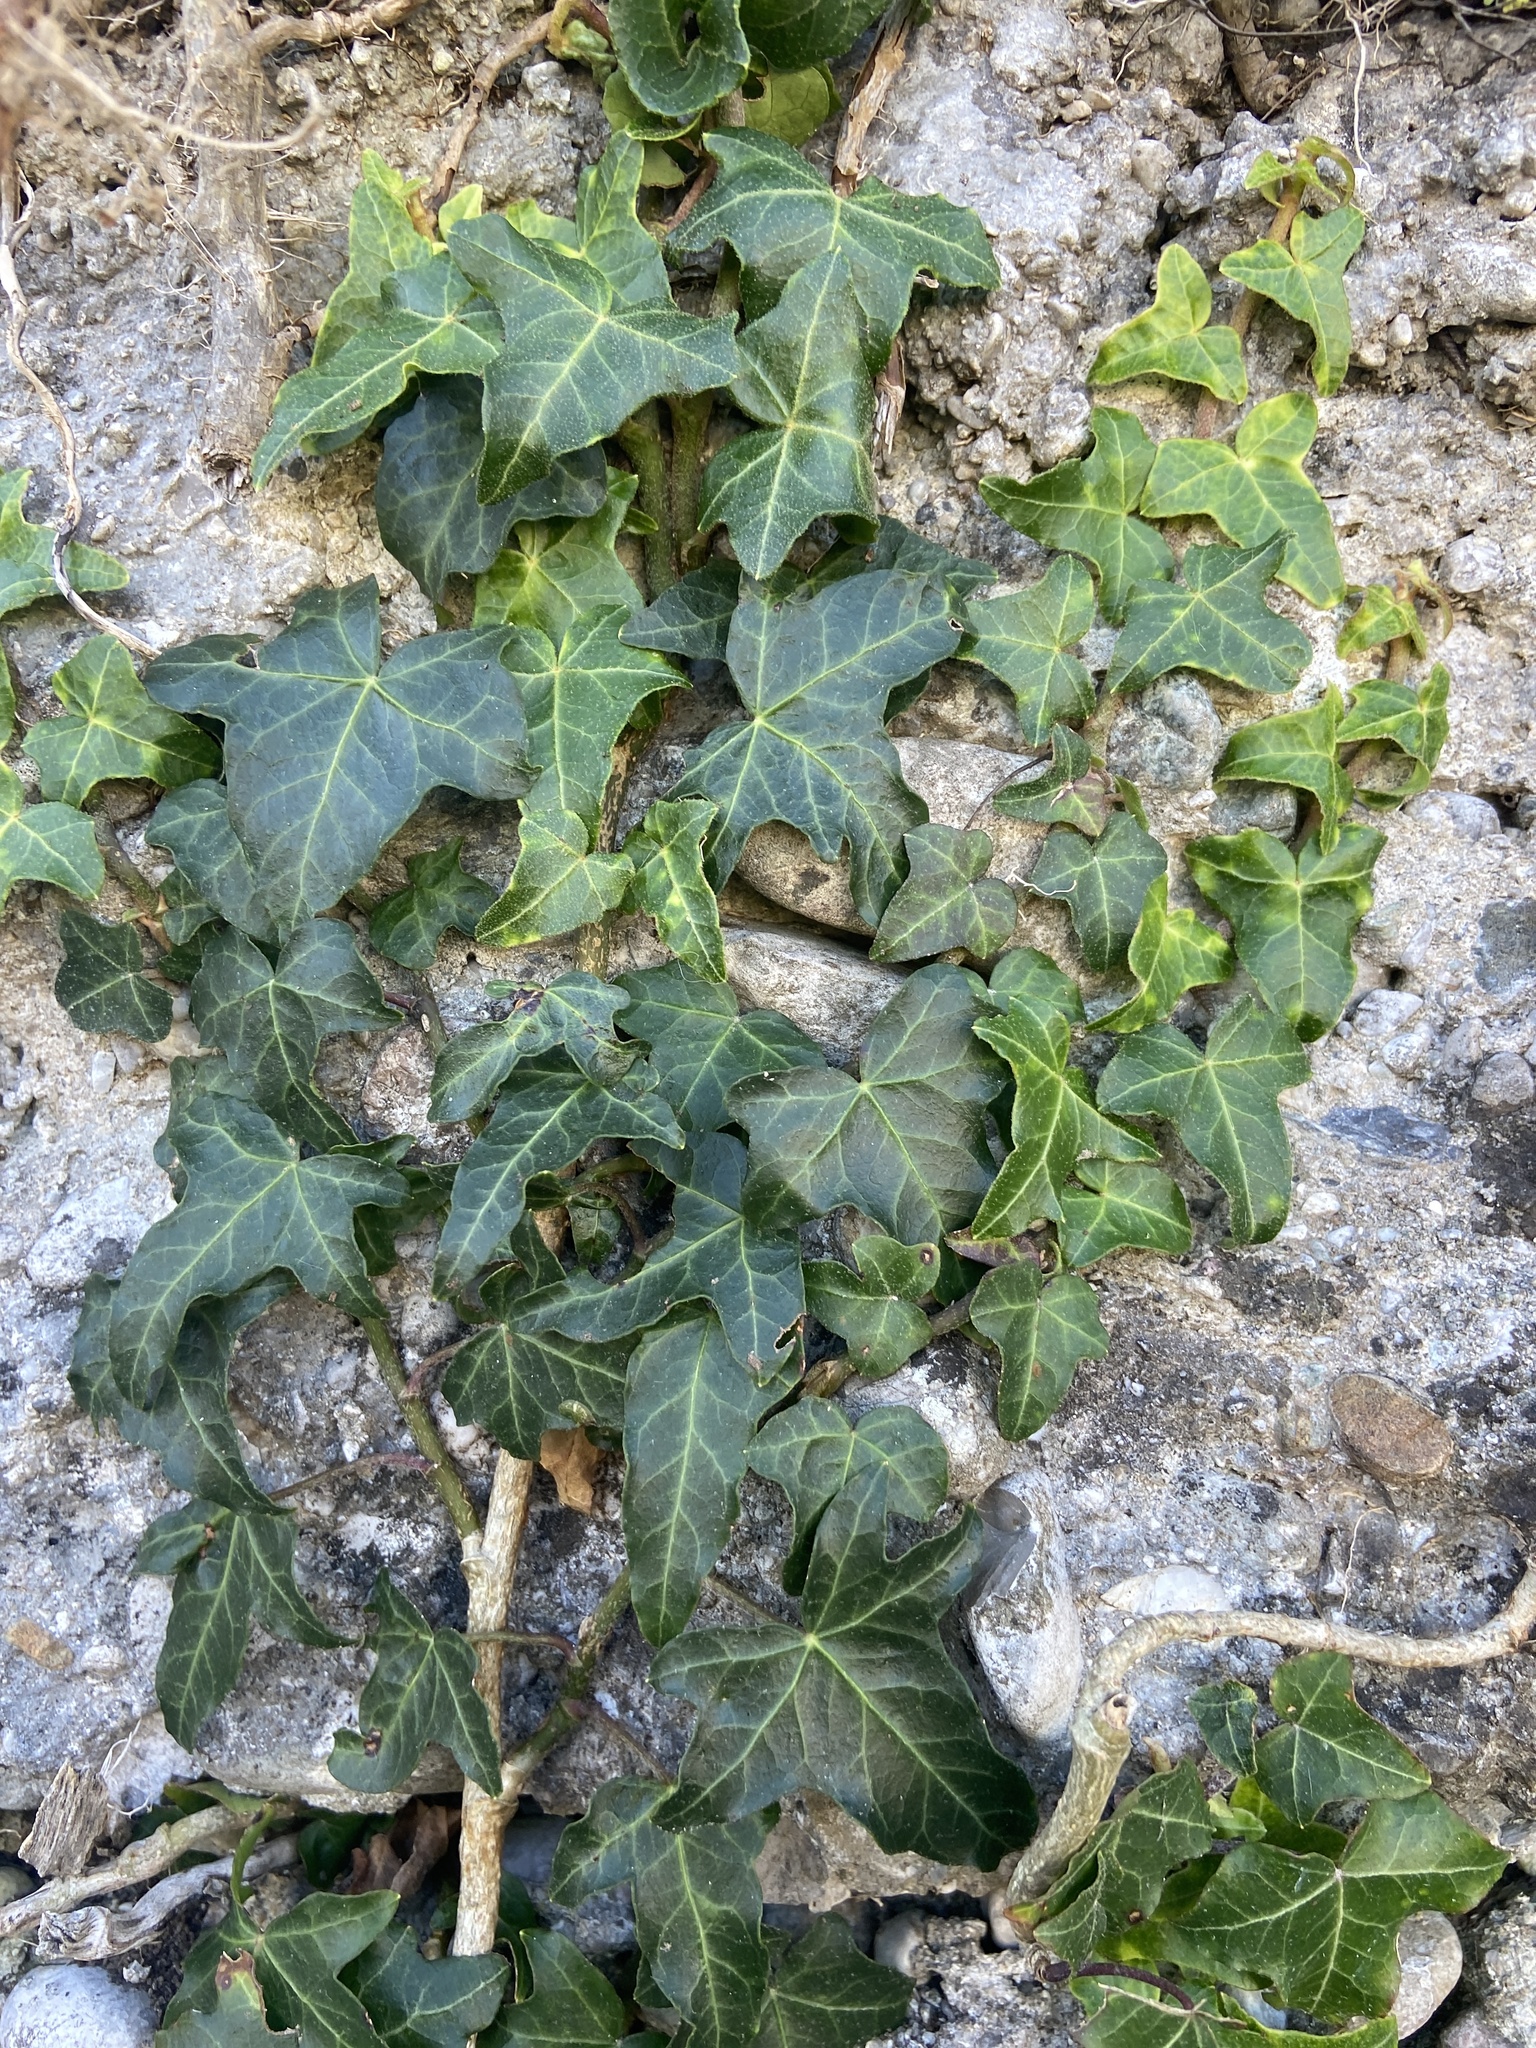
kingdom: Plantae
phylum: Tracheophyta
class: Magnoliopsida
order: Apiales
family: Araliaceae
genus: Hedera
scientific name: Hedera helix
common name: Ivy
